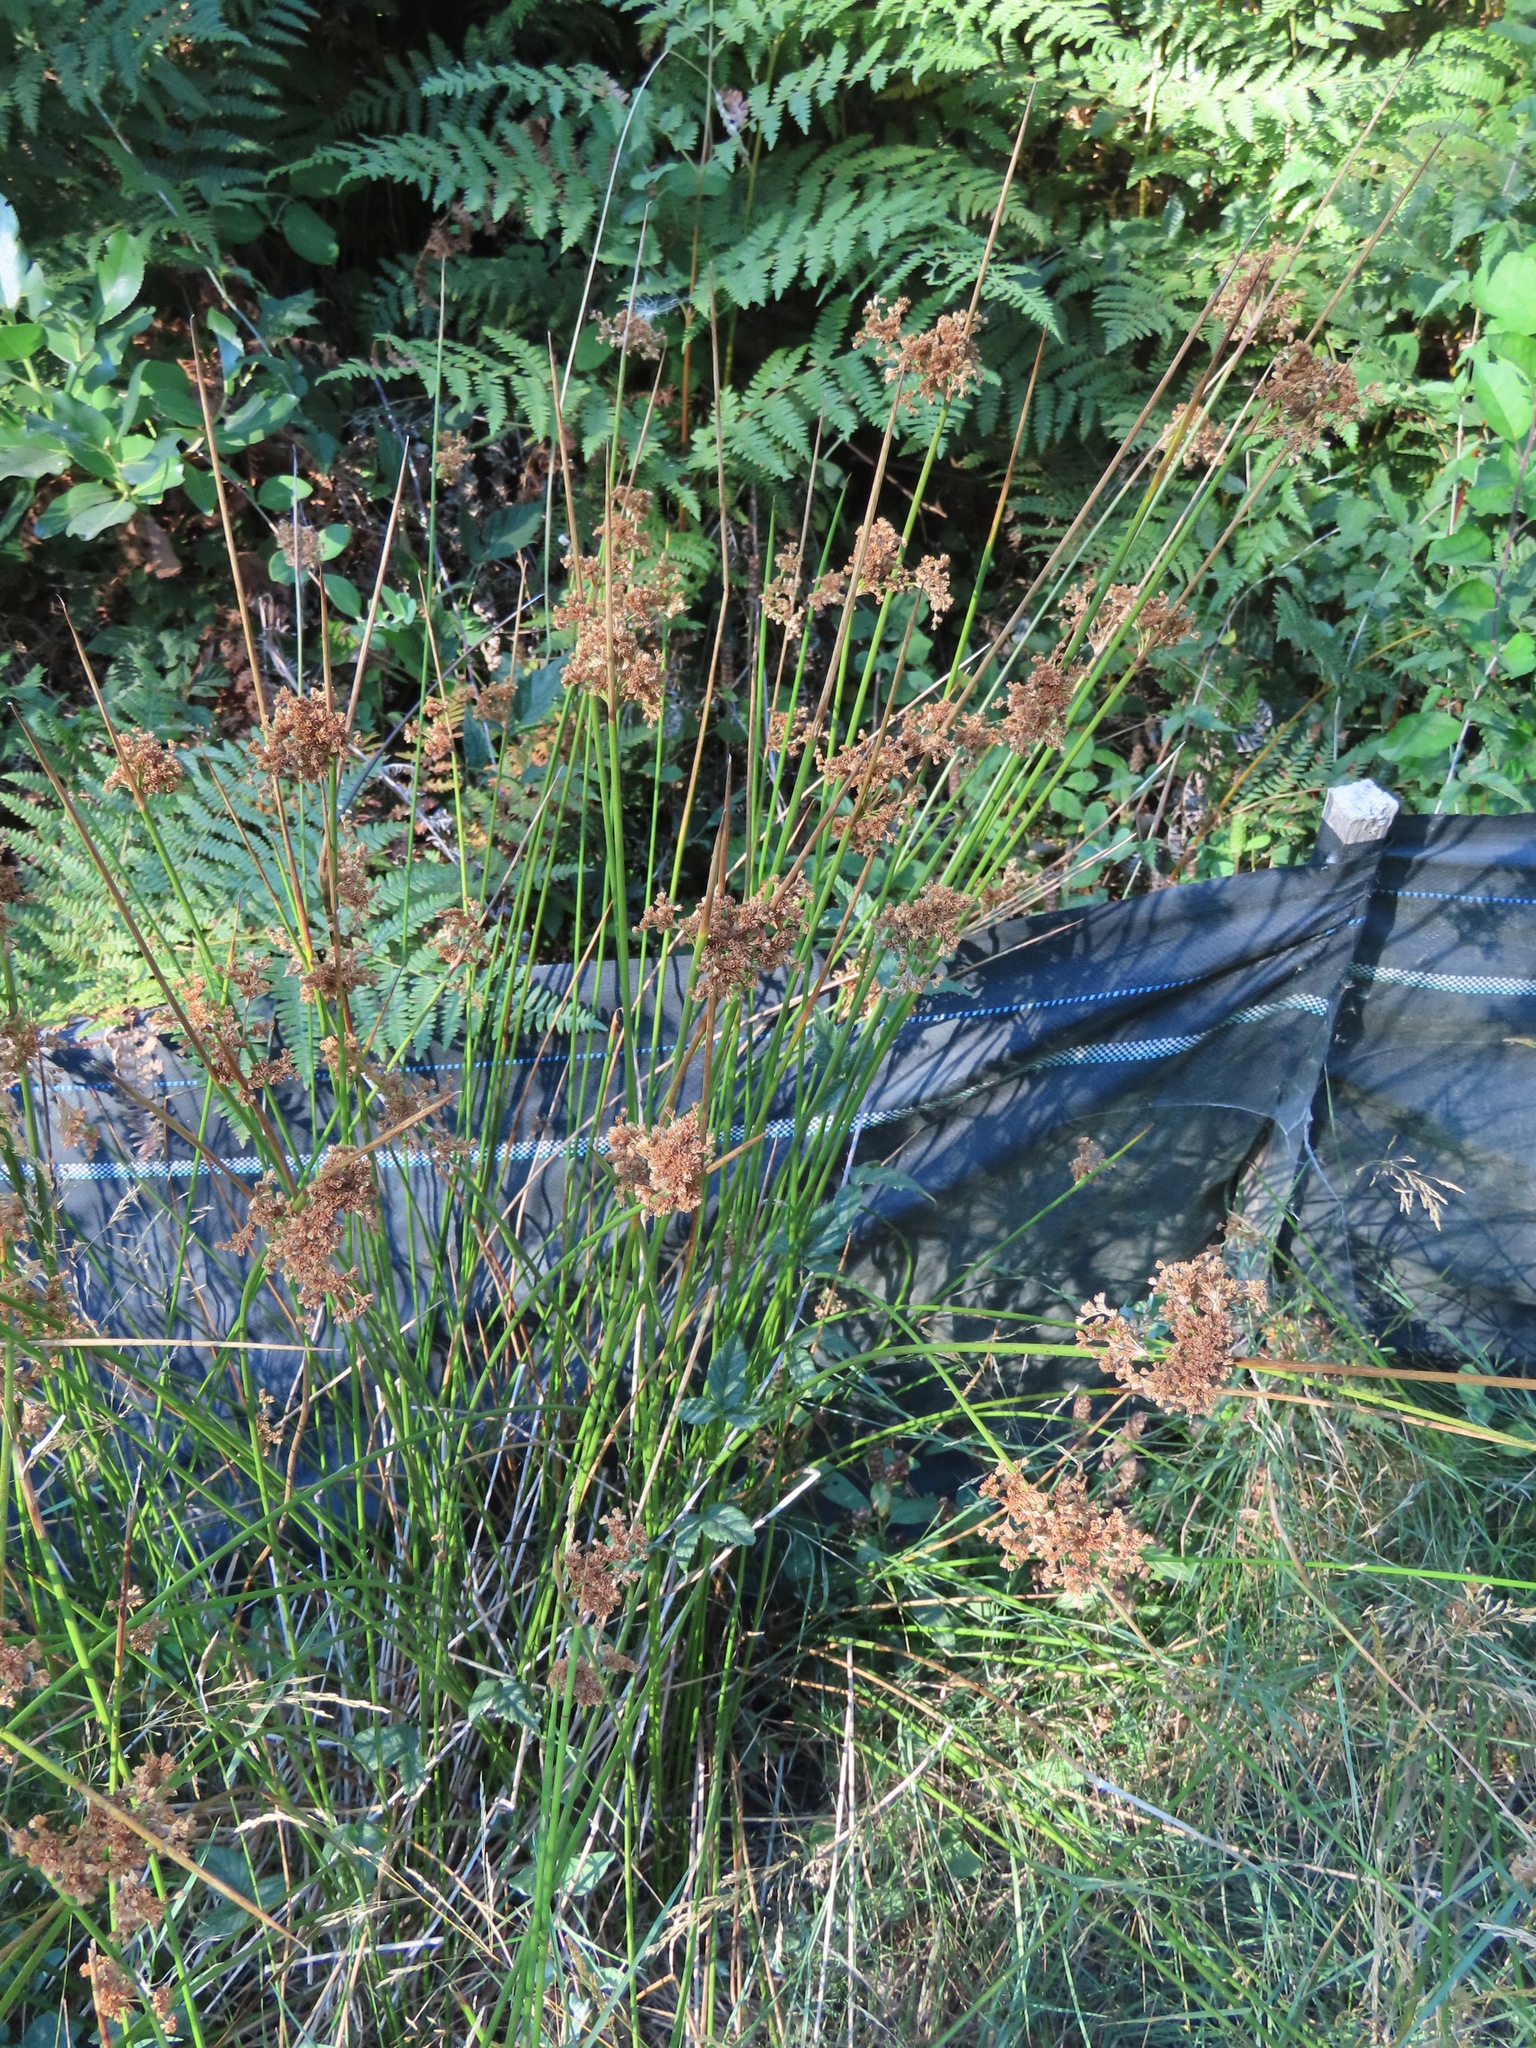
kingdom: Plantae
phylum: Tracheophyta
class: Liliopsida
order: Poales
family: Juncaceae
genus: Juncus
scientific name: Juncus effusus
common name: Soft rush
